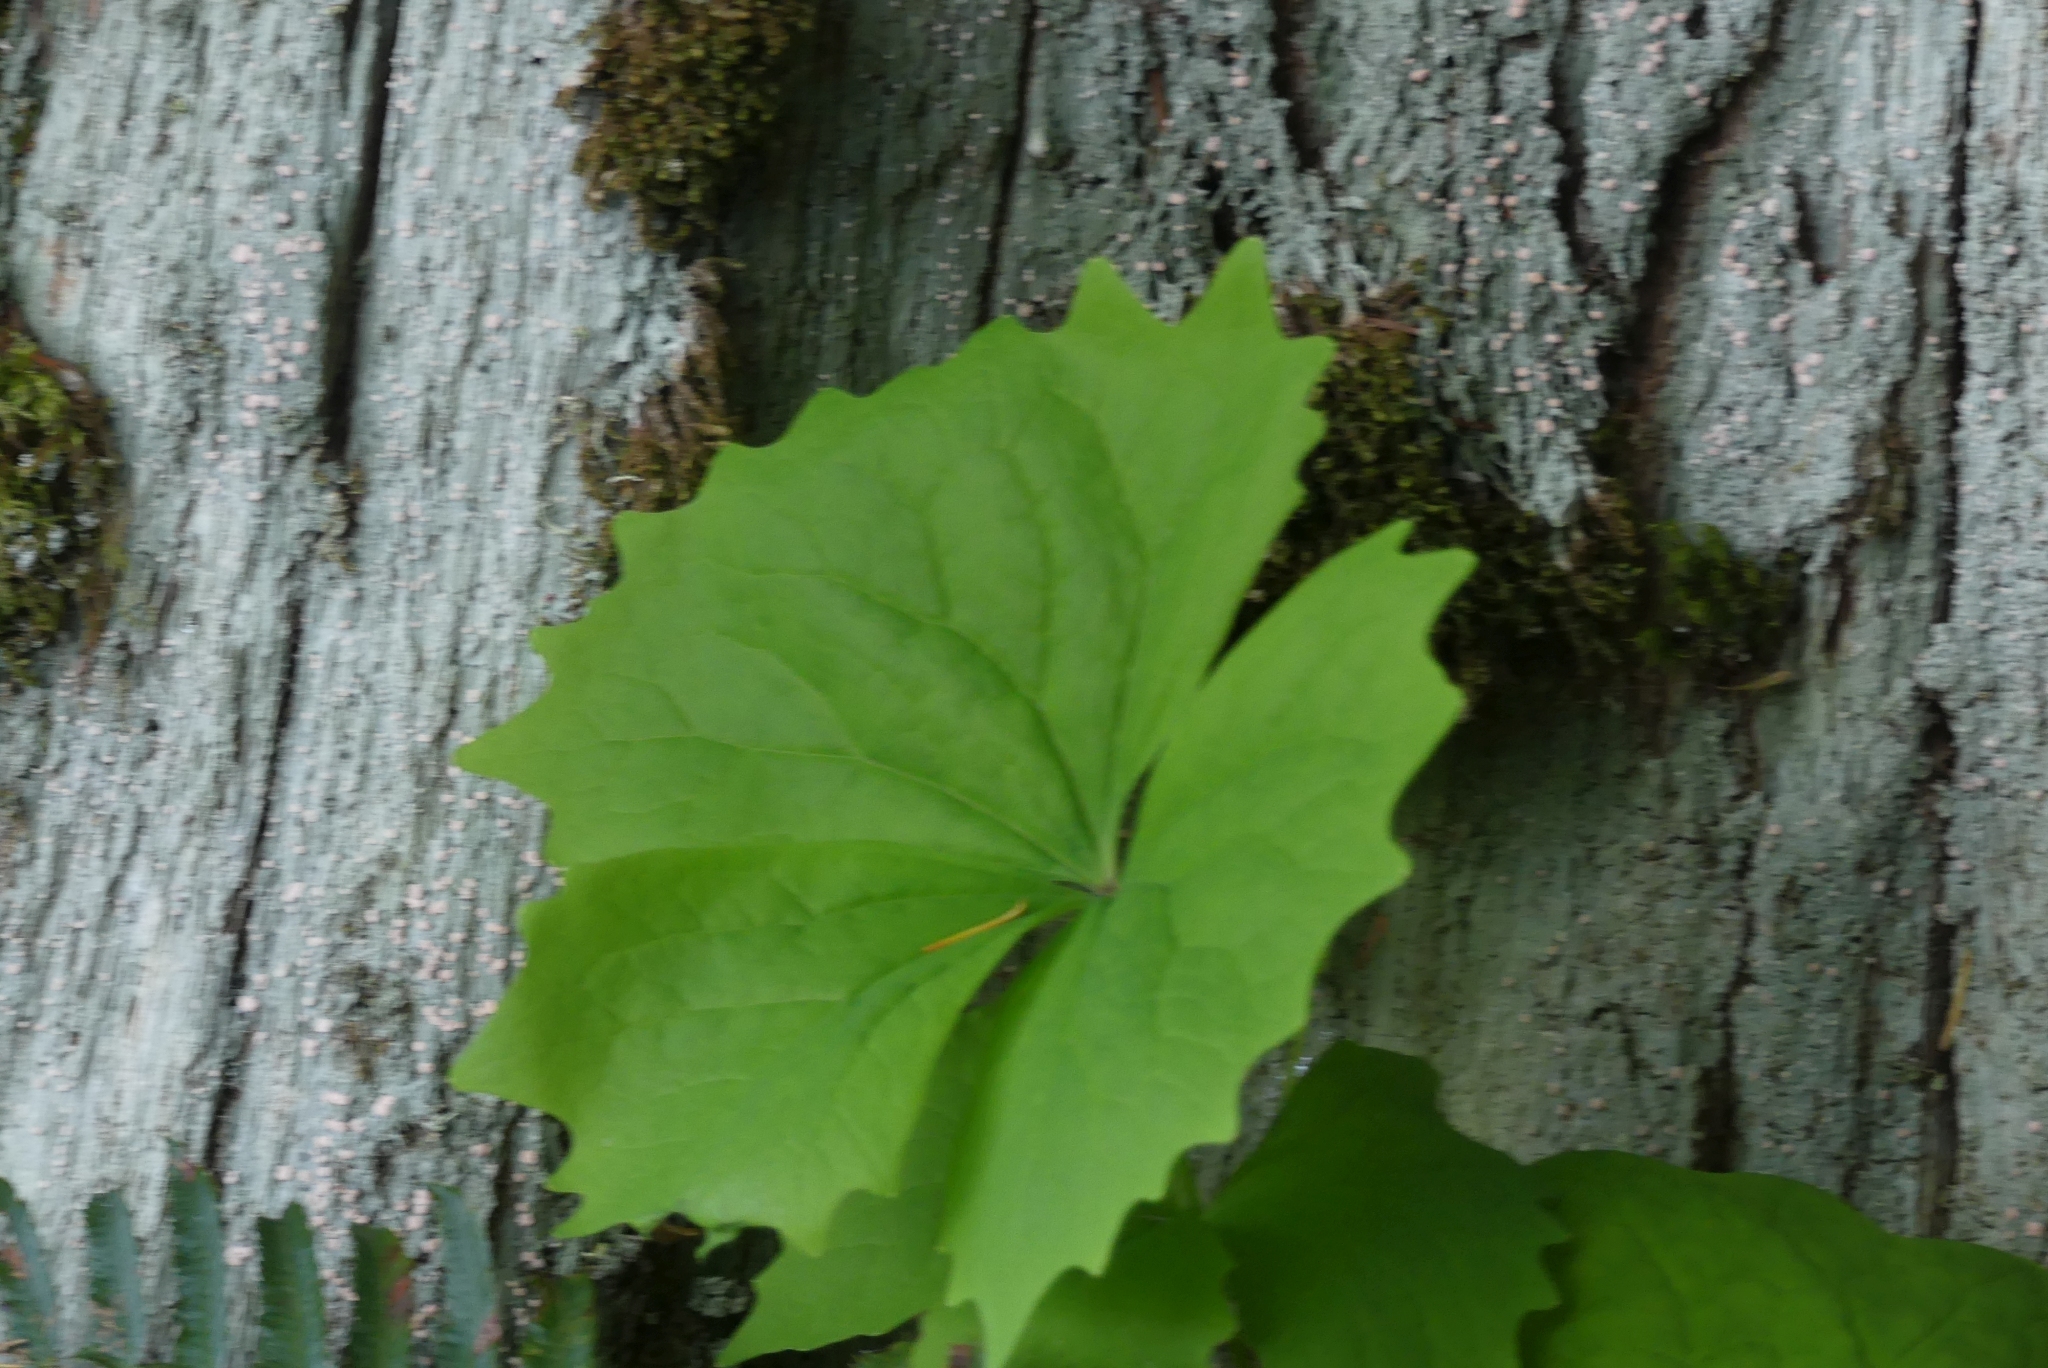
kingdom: Plantae
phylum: Tracheophyta
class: Magnoliopsida
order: Ranunculales
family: Berberidaceae
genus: Achlys
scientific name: Achlys triphylla
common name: Vanilla-leaf
